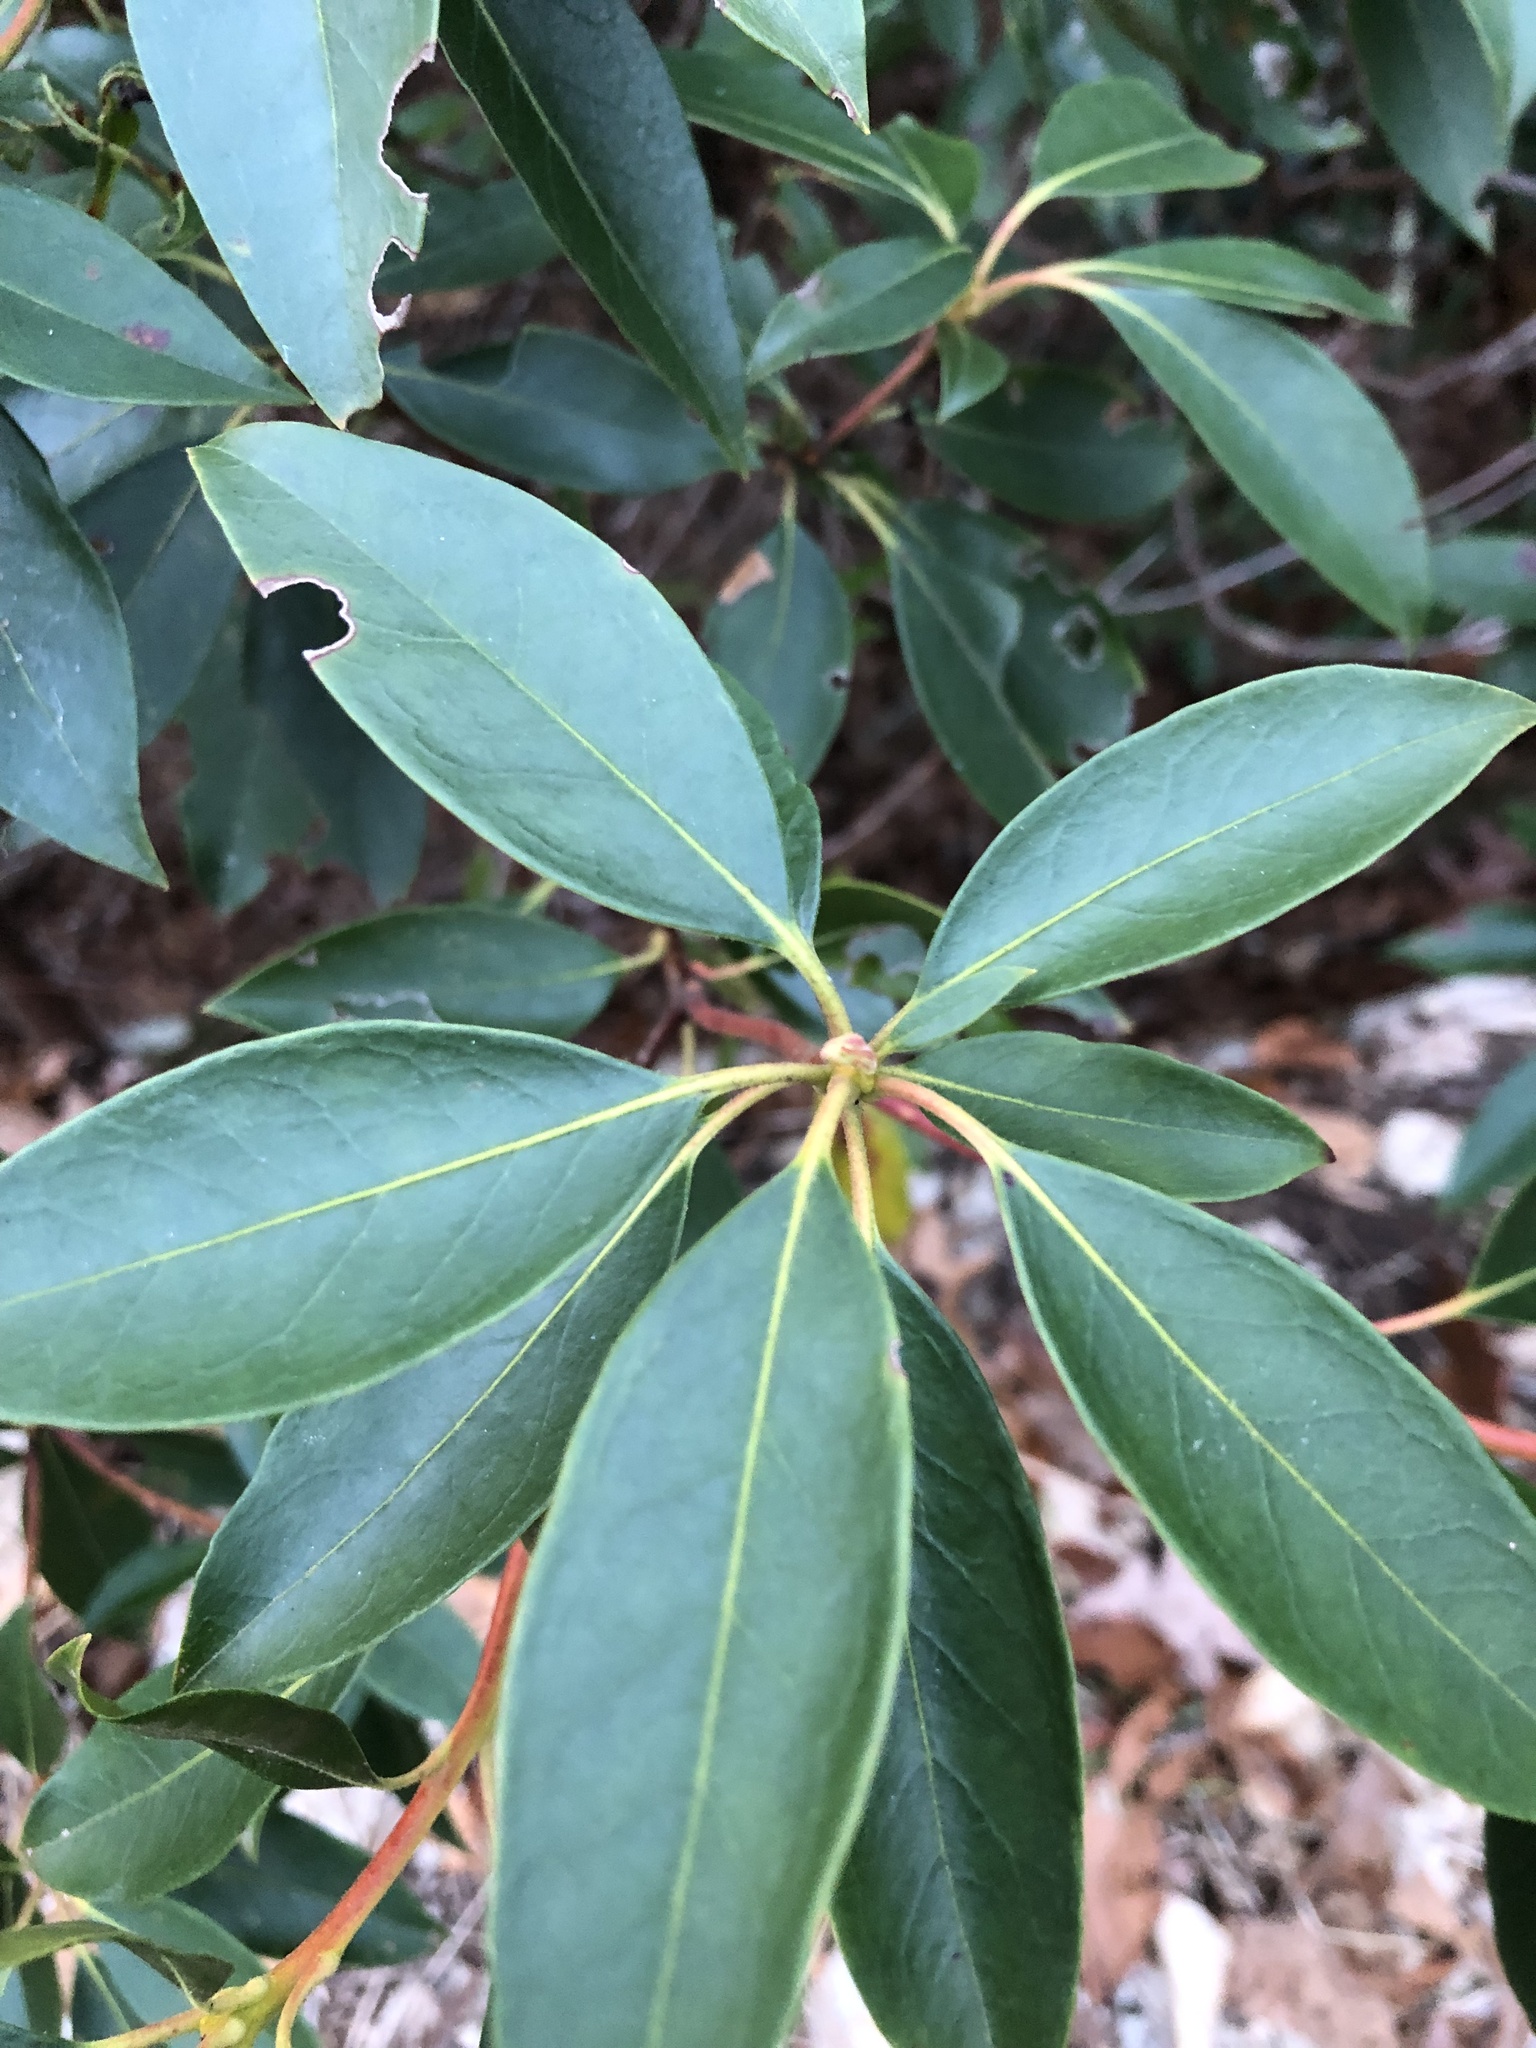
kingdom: Plantae
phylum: Tracheophyta
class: Magnoliopsida
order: Ericales
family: Ericaceae
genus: Kalmia
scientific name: Kalmia latifolia
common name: Mountain-laurel
